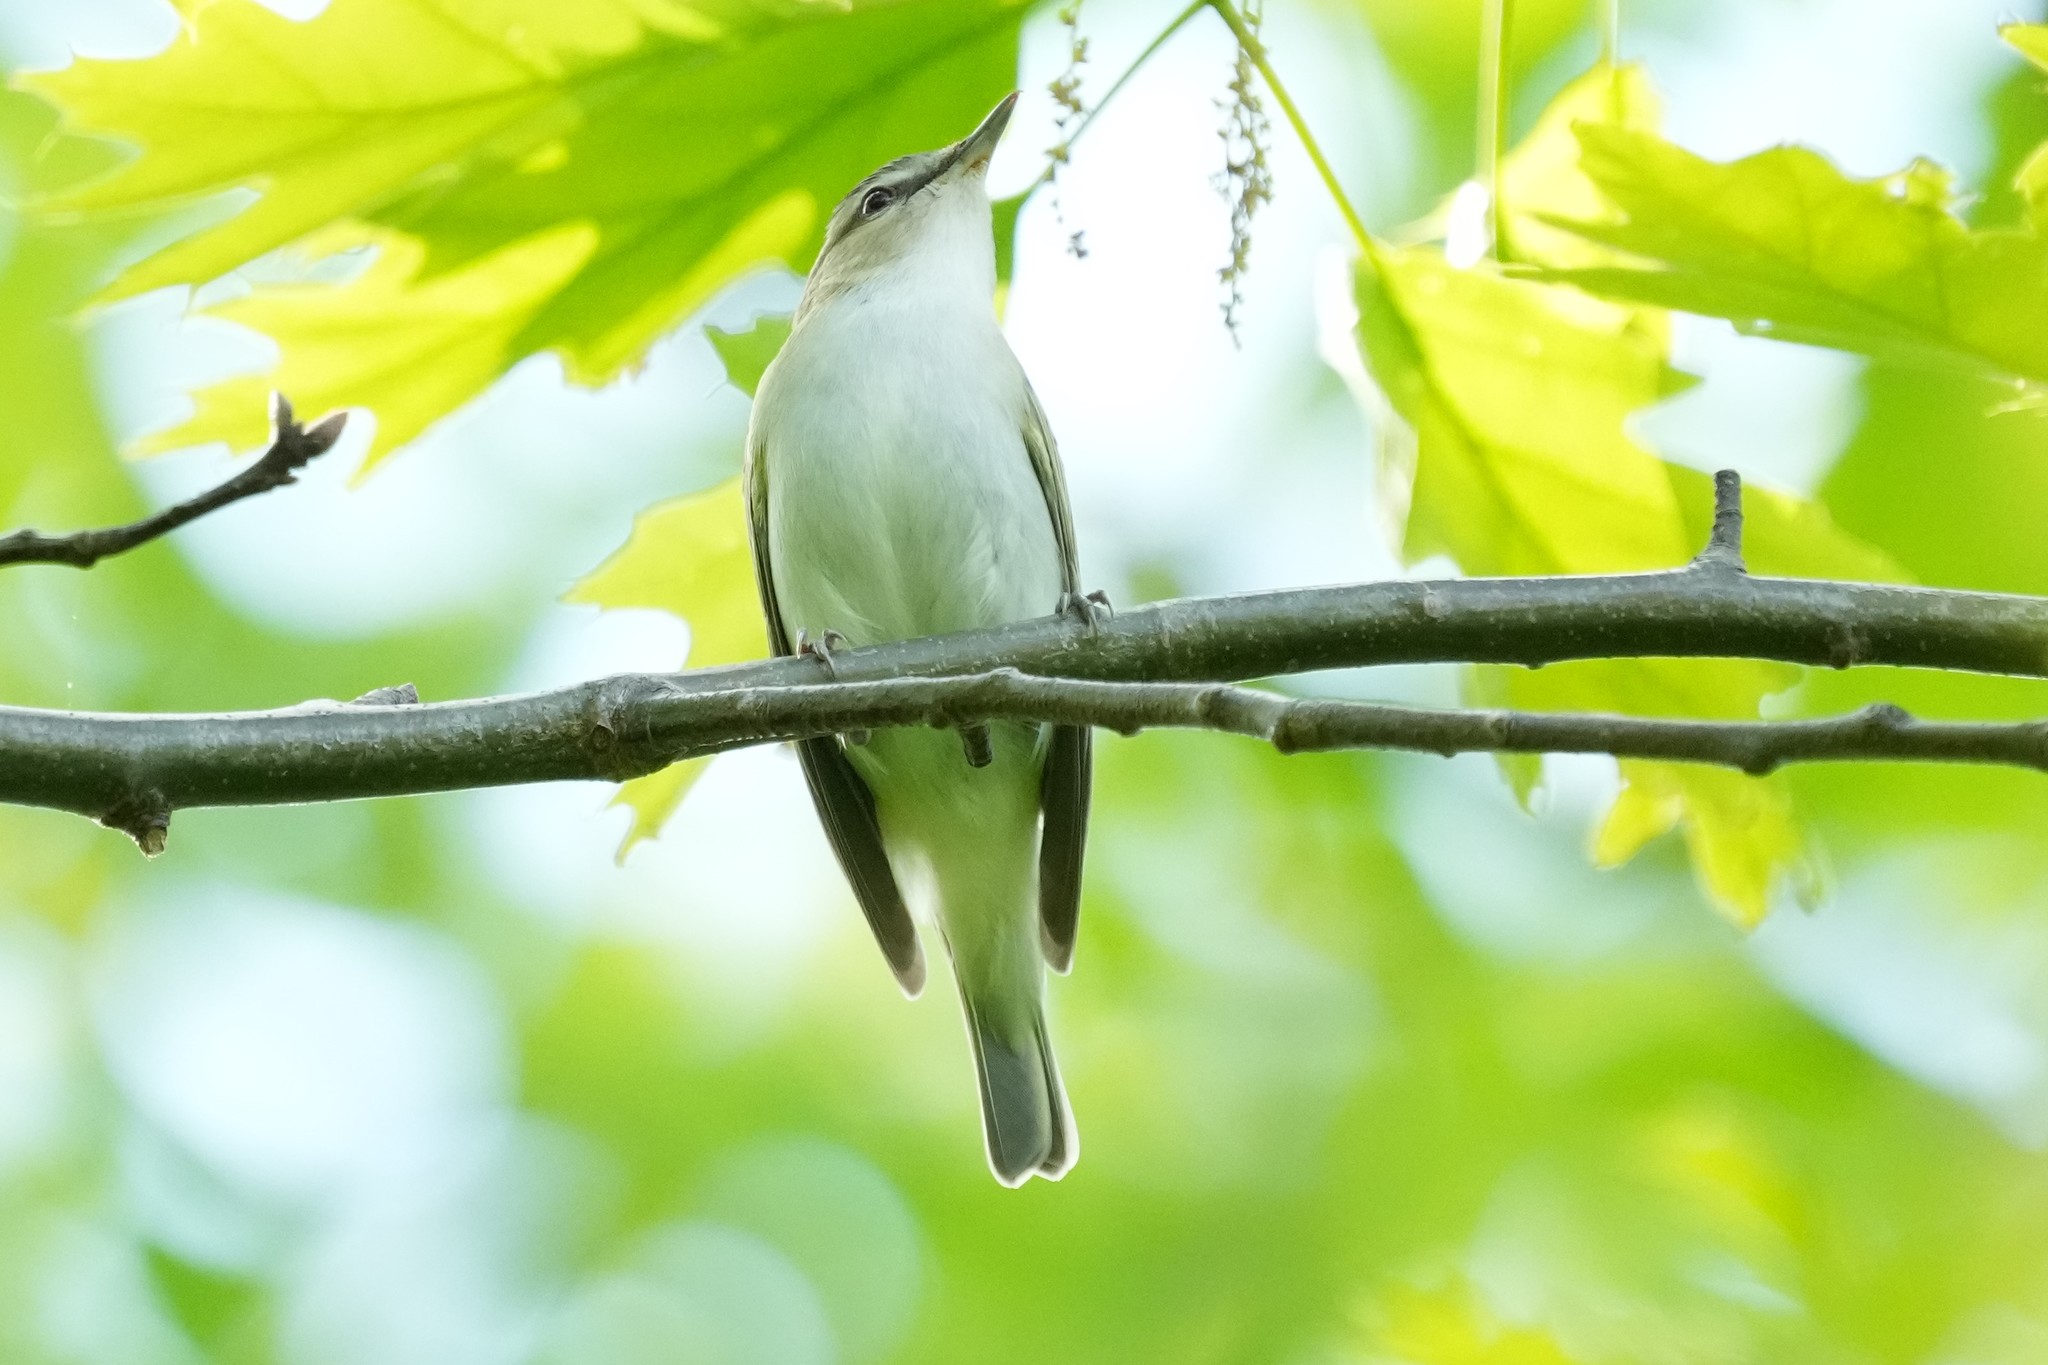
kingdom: Animalia
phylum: Chordata
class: Aves
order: Passeriformes
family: Vireonidae
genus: Vireo
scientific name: Vireo olivaceus
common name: Red-eyed vireo
